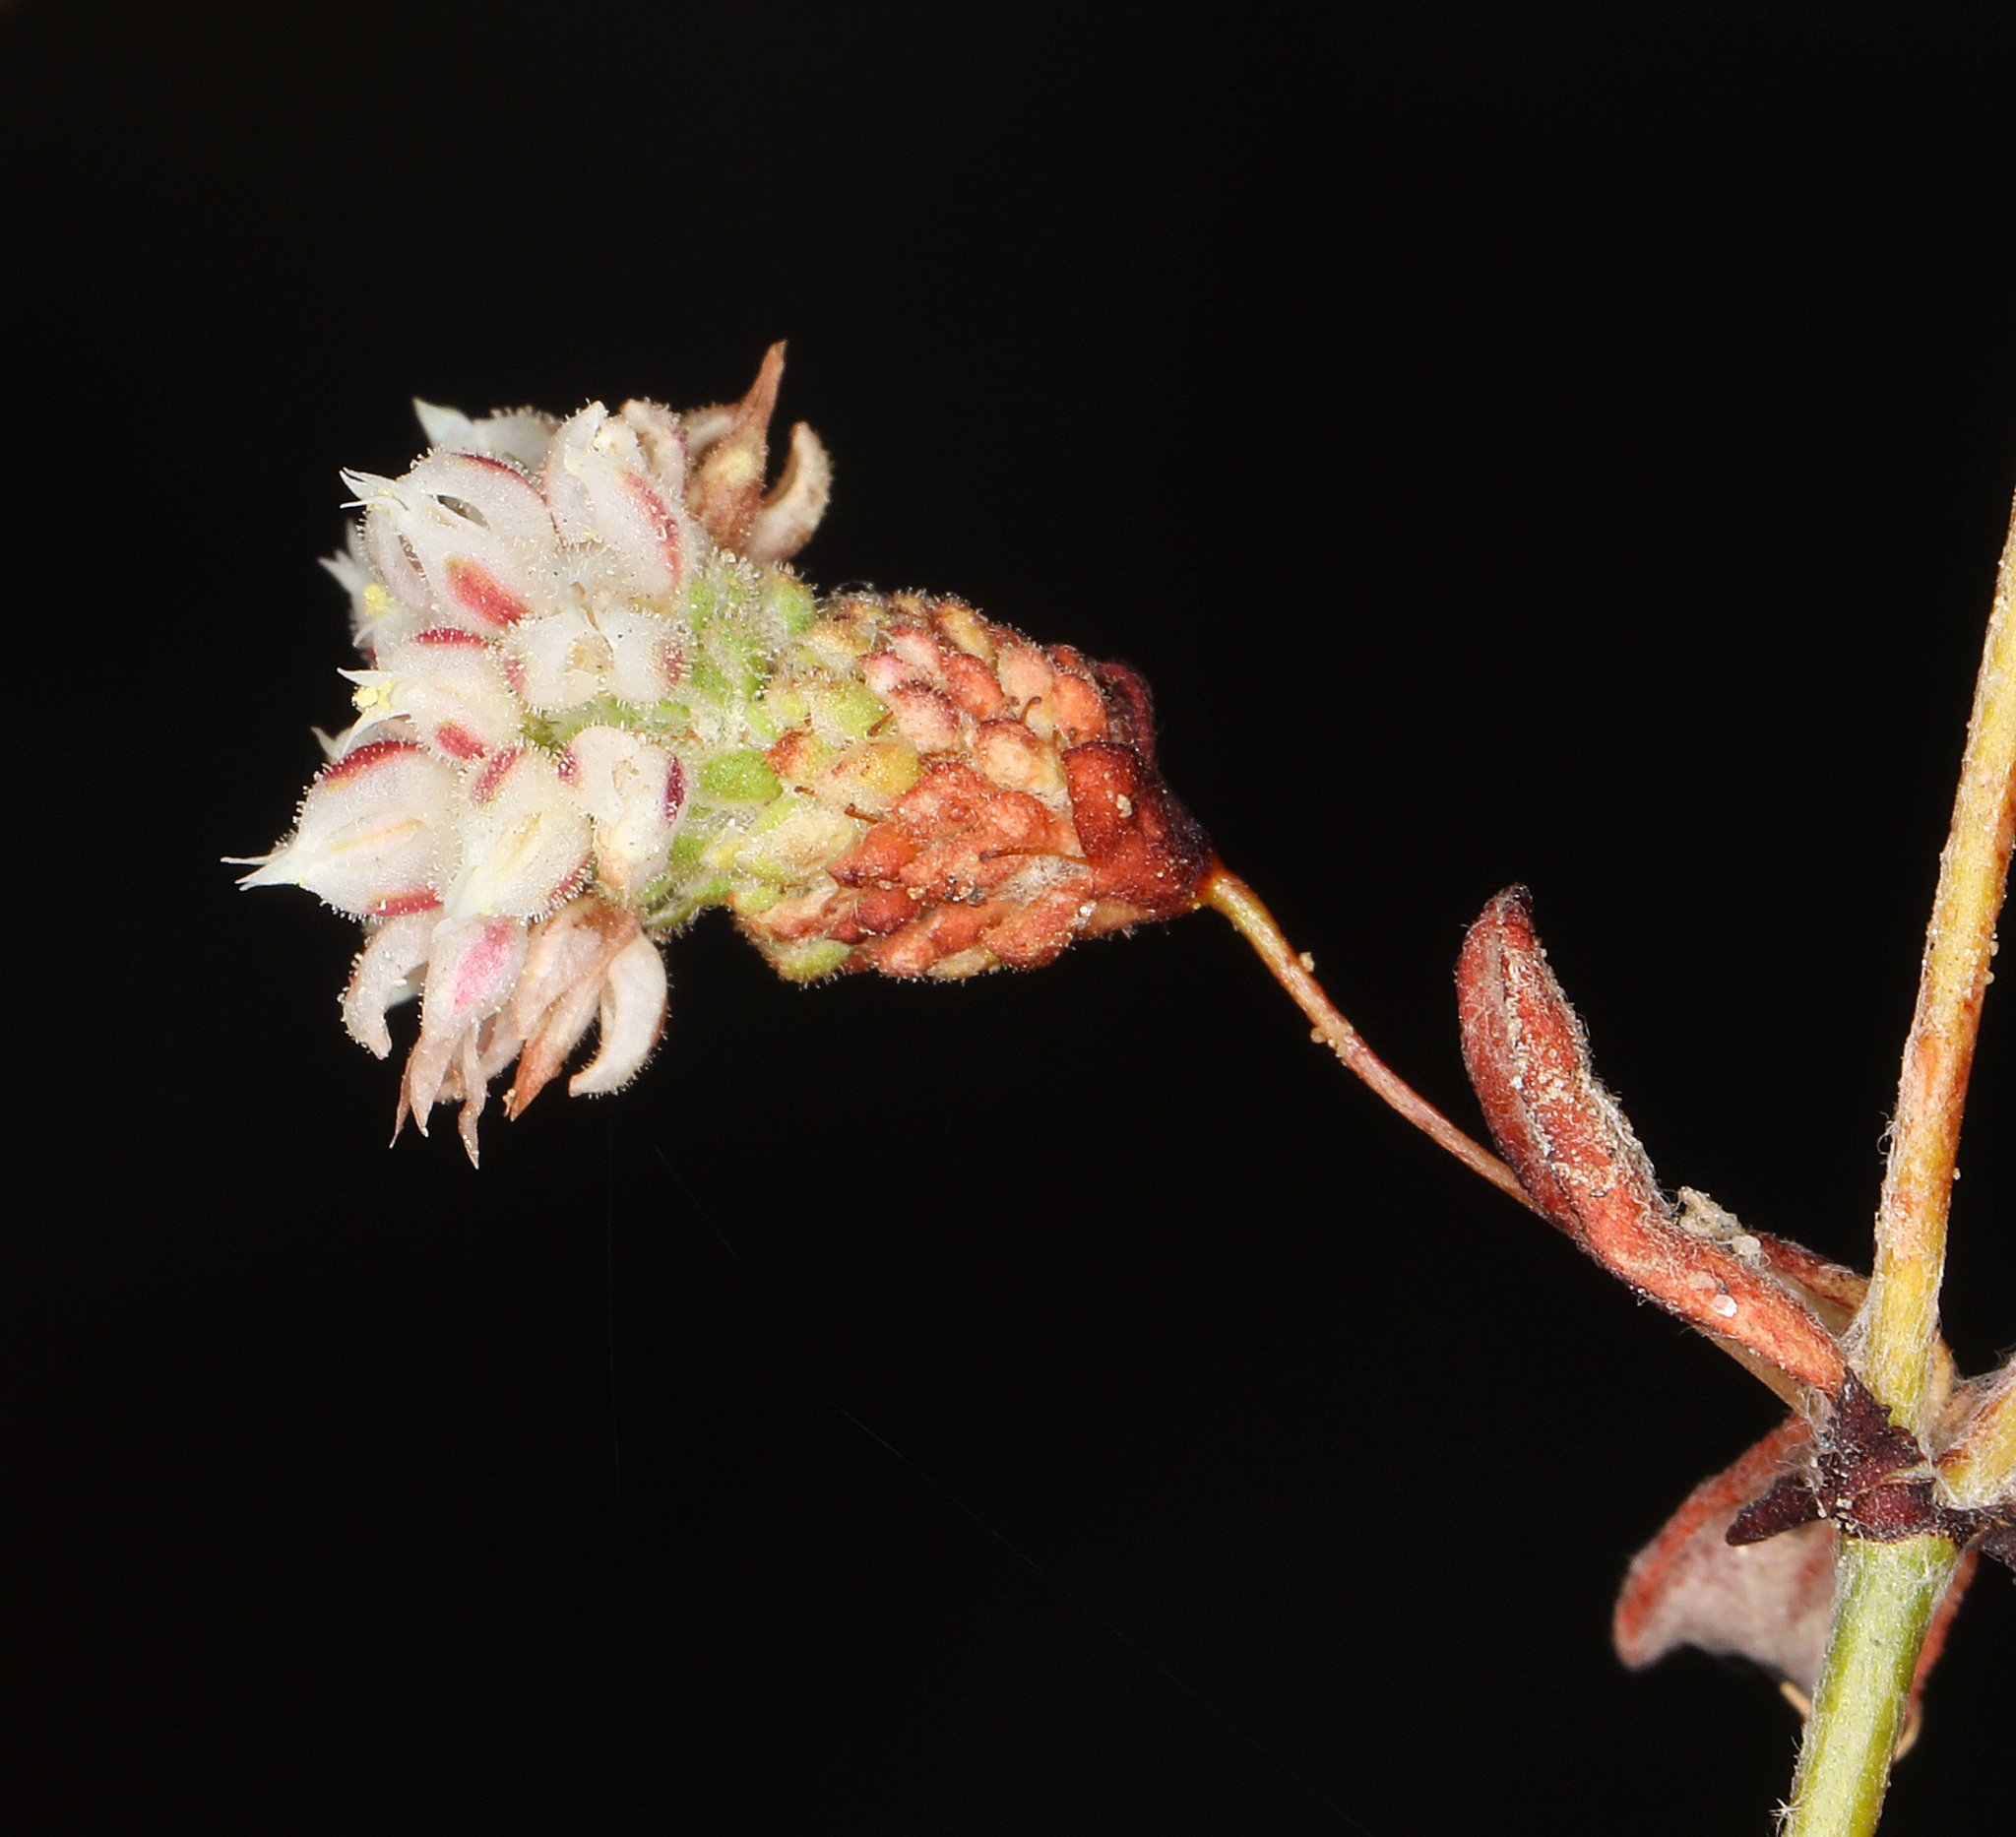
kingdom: Plantae
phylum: Tracheophyta
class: Magnoliopsida
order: Caryophyllales
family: Polygonaceae
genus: Eriogonum
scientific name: Eriogonum maculatum
